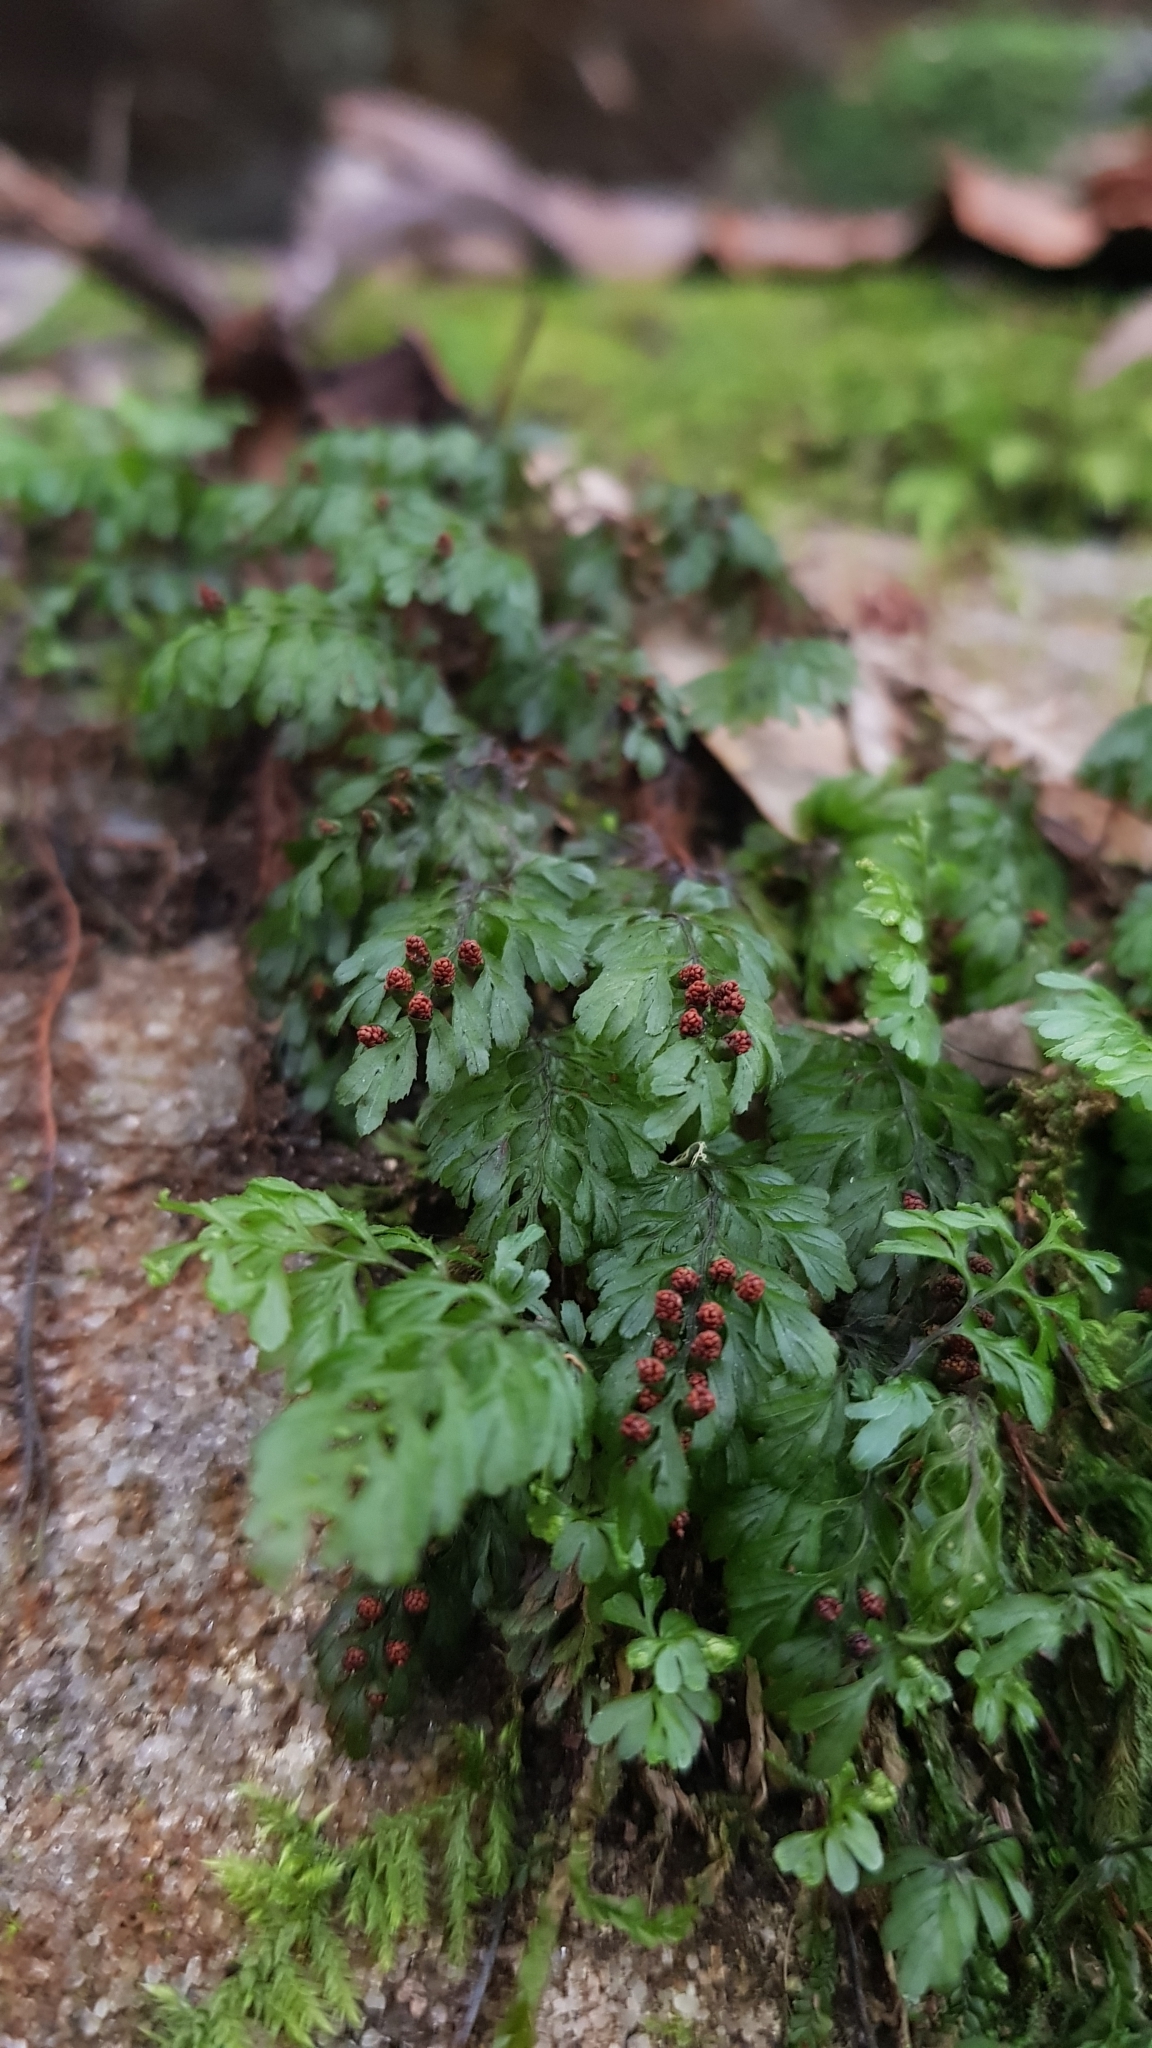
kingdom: Plantae
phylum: Tracheophyta
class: Polypodiopsida
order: Hymenophyllales
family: Hymenophyllaceae
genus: Hymenophyllum
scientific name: Hymenophyllum cupressiforme
